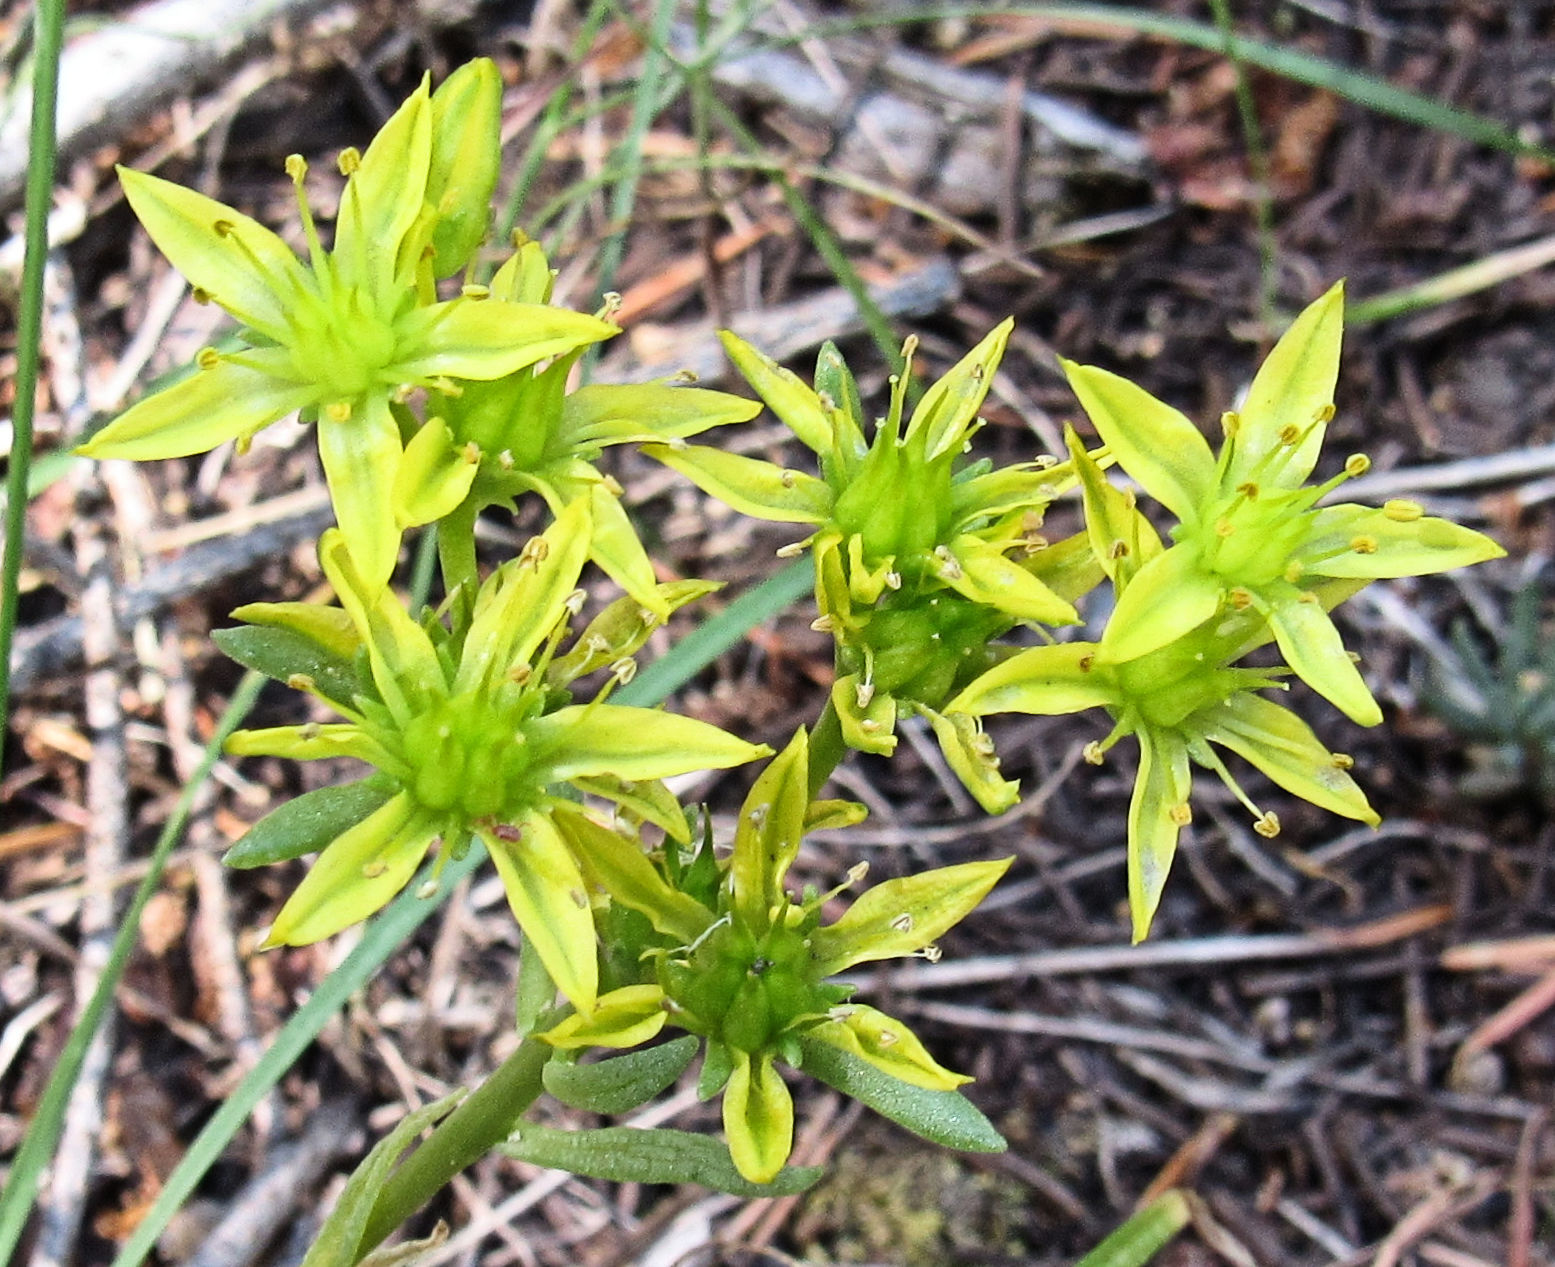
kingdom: Plantae
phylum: Tracheophyta
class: Magnoliopsida
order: Saxifragales
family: Crassulaceae
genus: Sedum
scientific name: Sedum lanceolatum
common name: Common stonecrop
